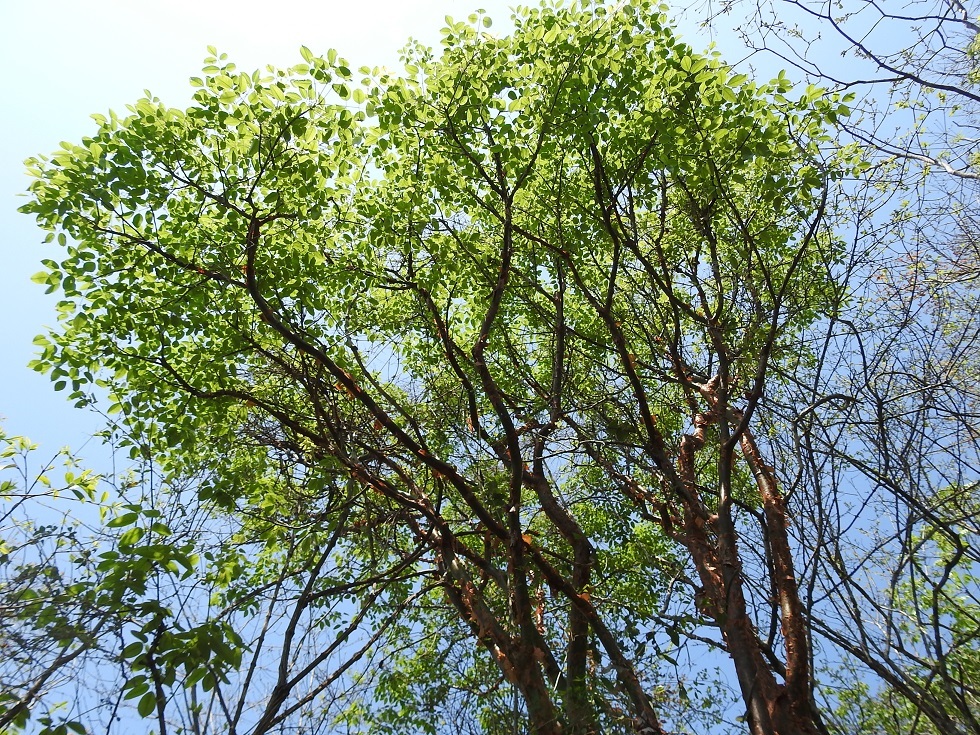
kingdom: Plantae
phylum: Tracheophyta
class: Magnoliopsida
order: Sapindales
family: Burseraceae
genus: Bursera
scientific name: Bursera simaruba
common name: Turpentine tree
